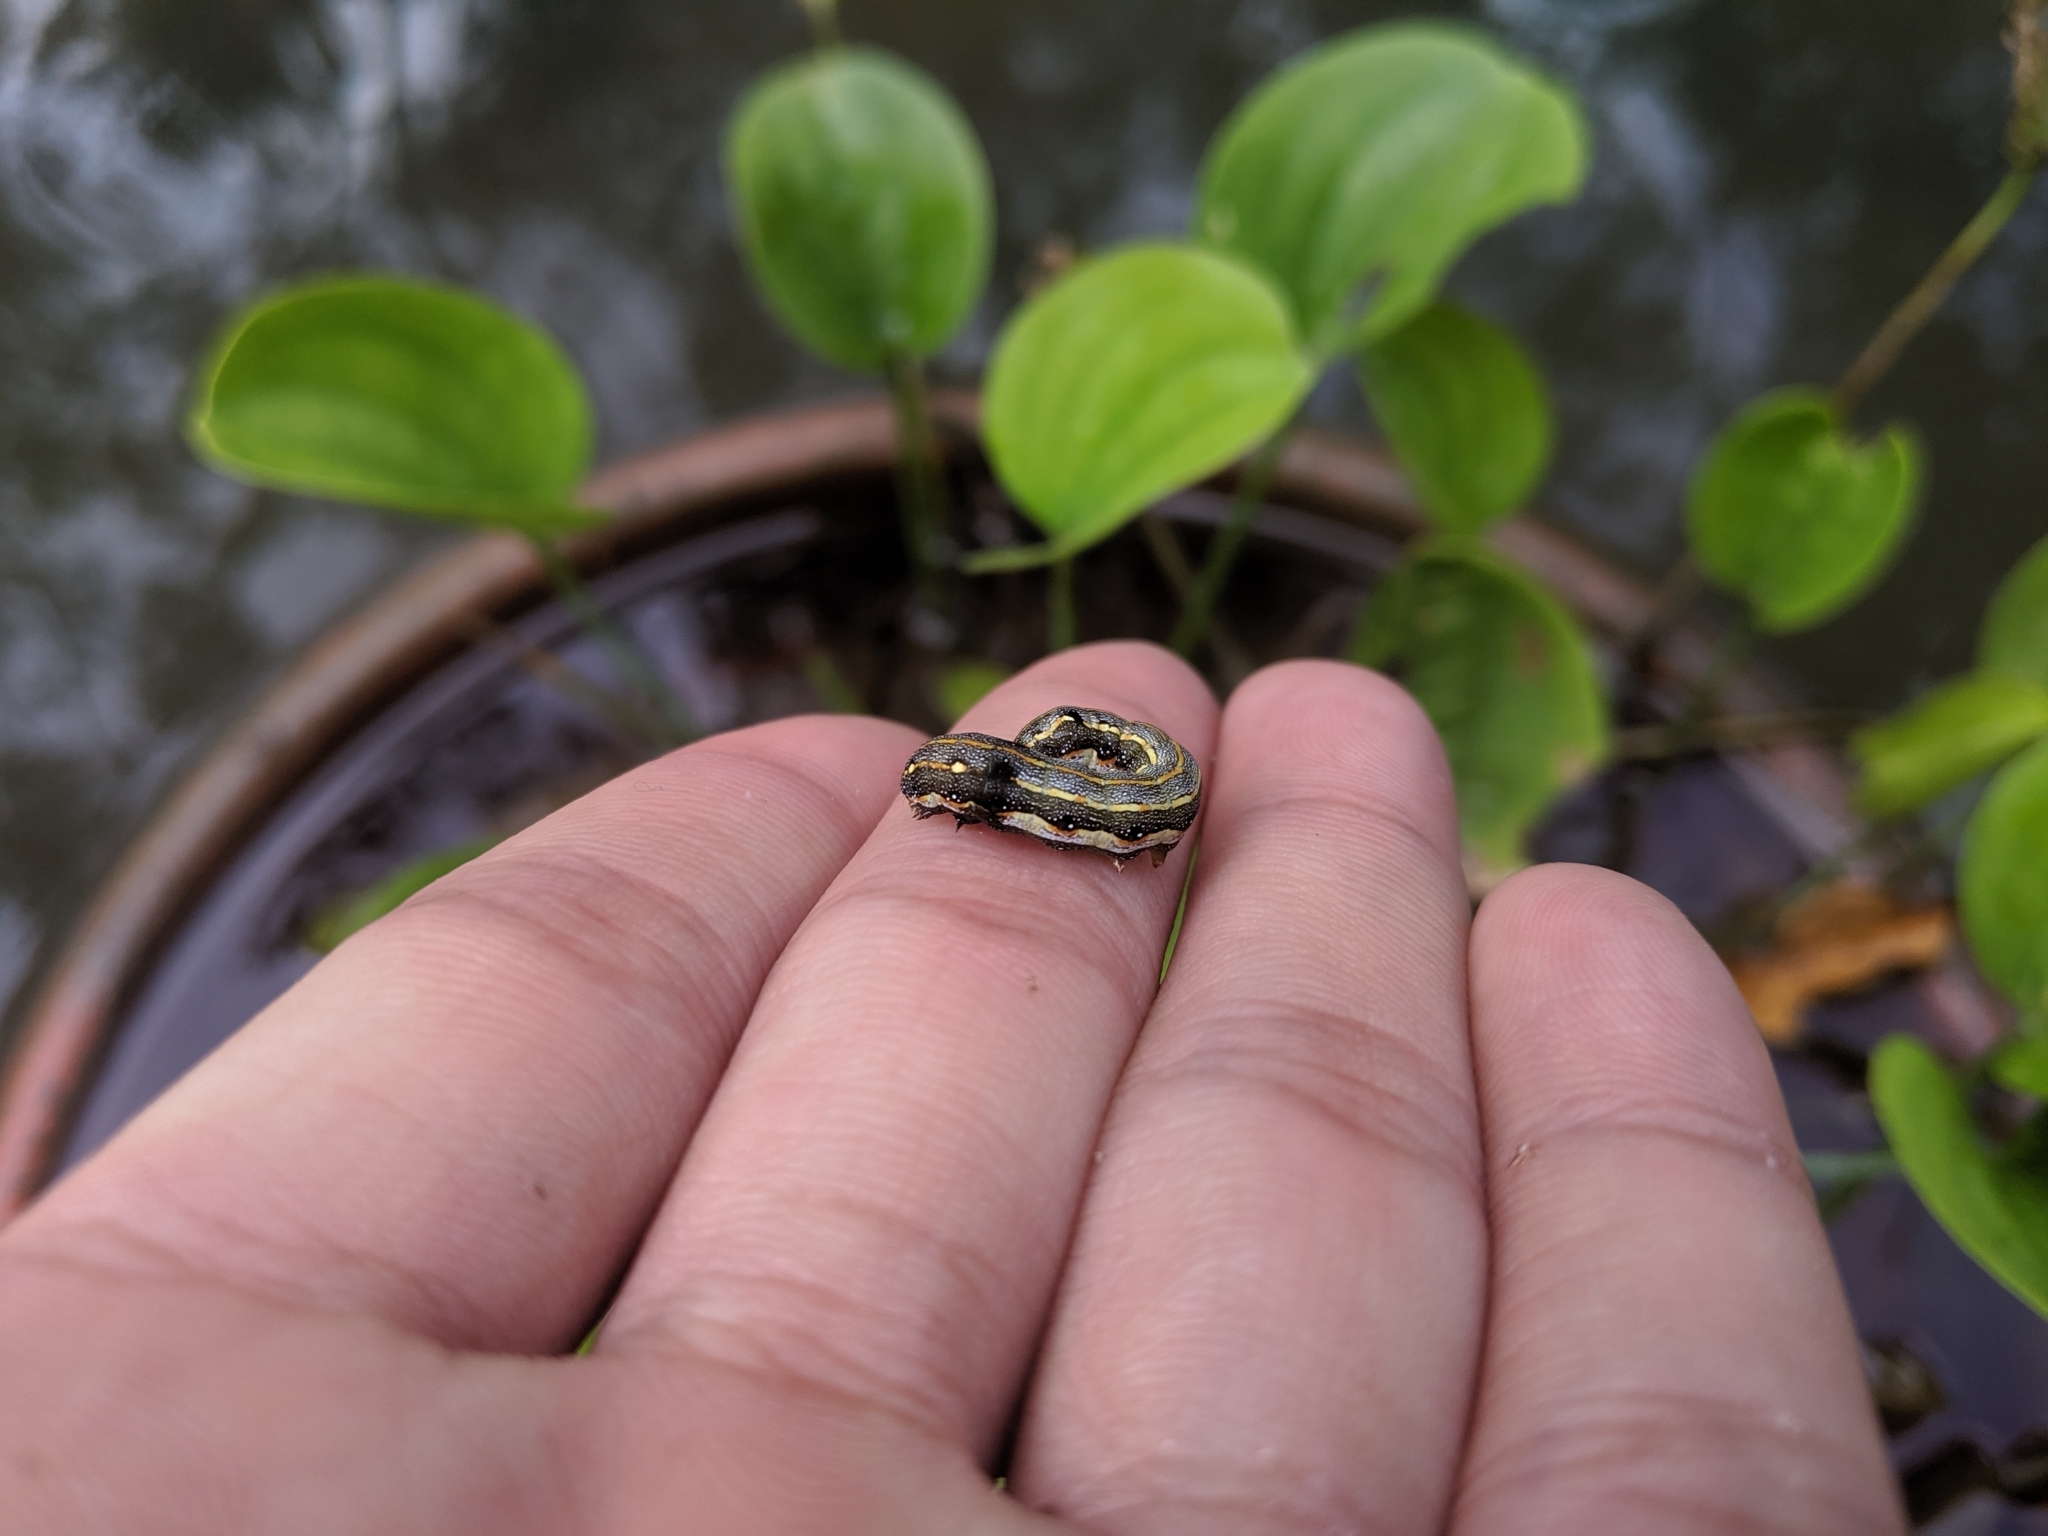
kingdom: Animalia
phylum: Arthropoda
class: Insecta
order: Lepidoptera
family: Noctuidae
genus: Spodoptera
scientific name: Spodoptera litura
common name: Asian cotton leafworm
